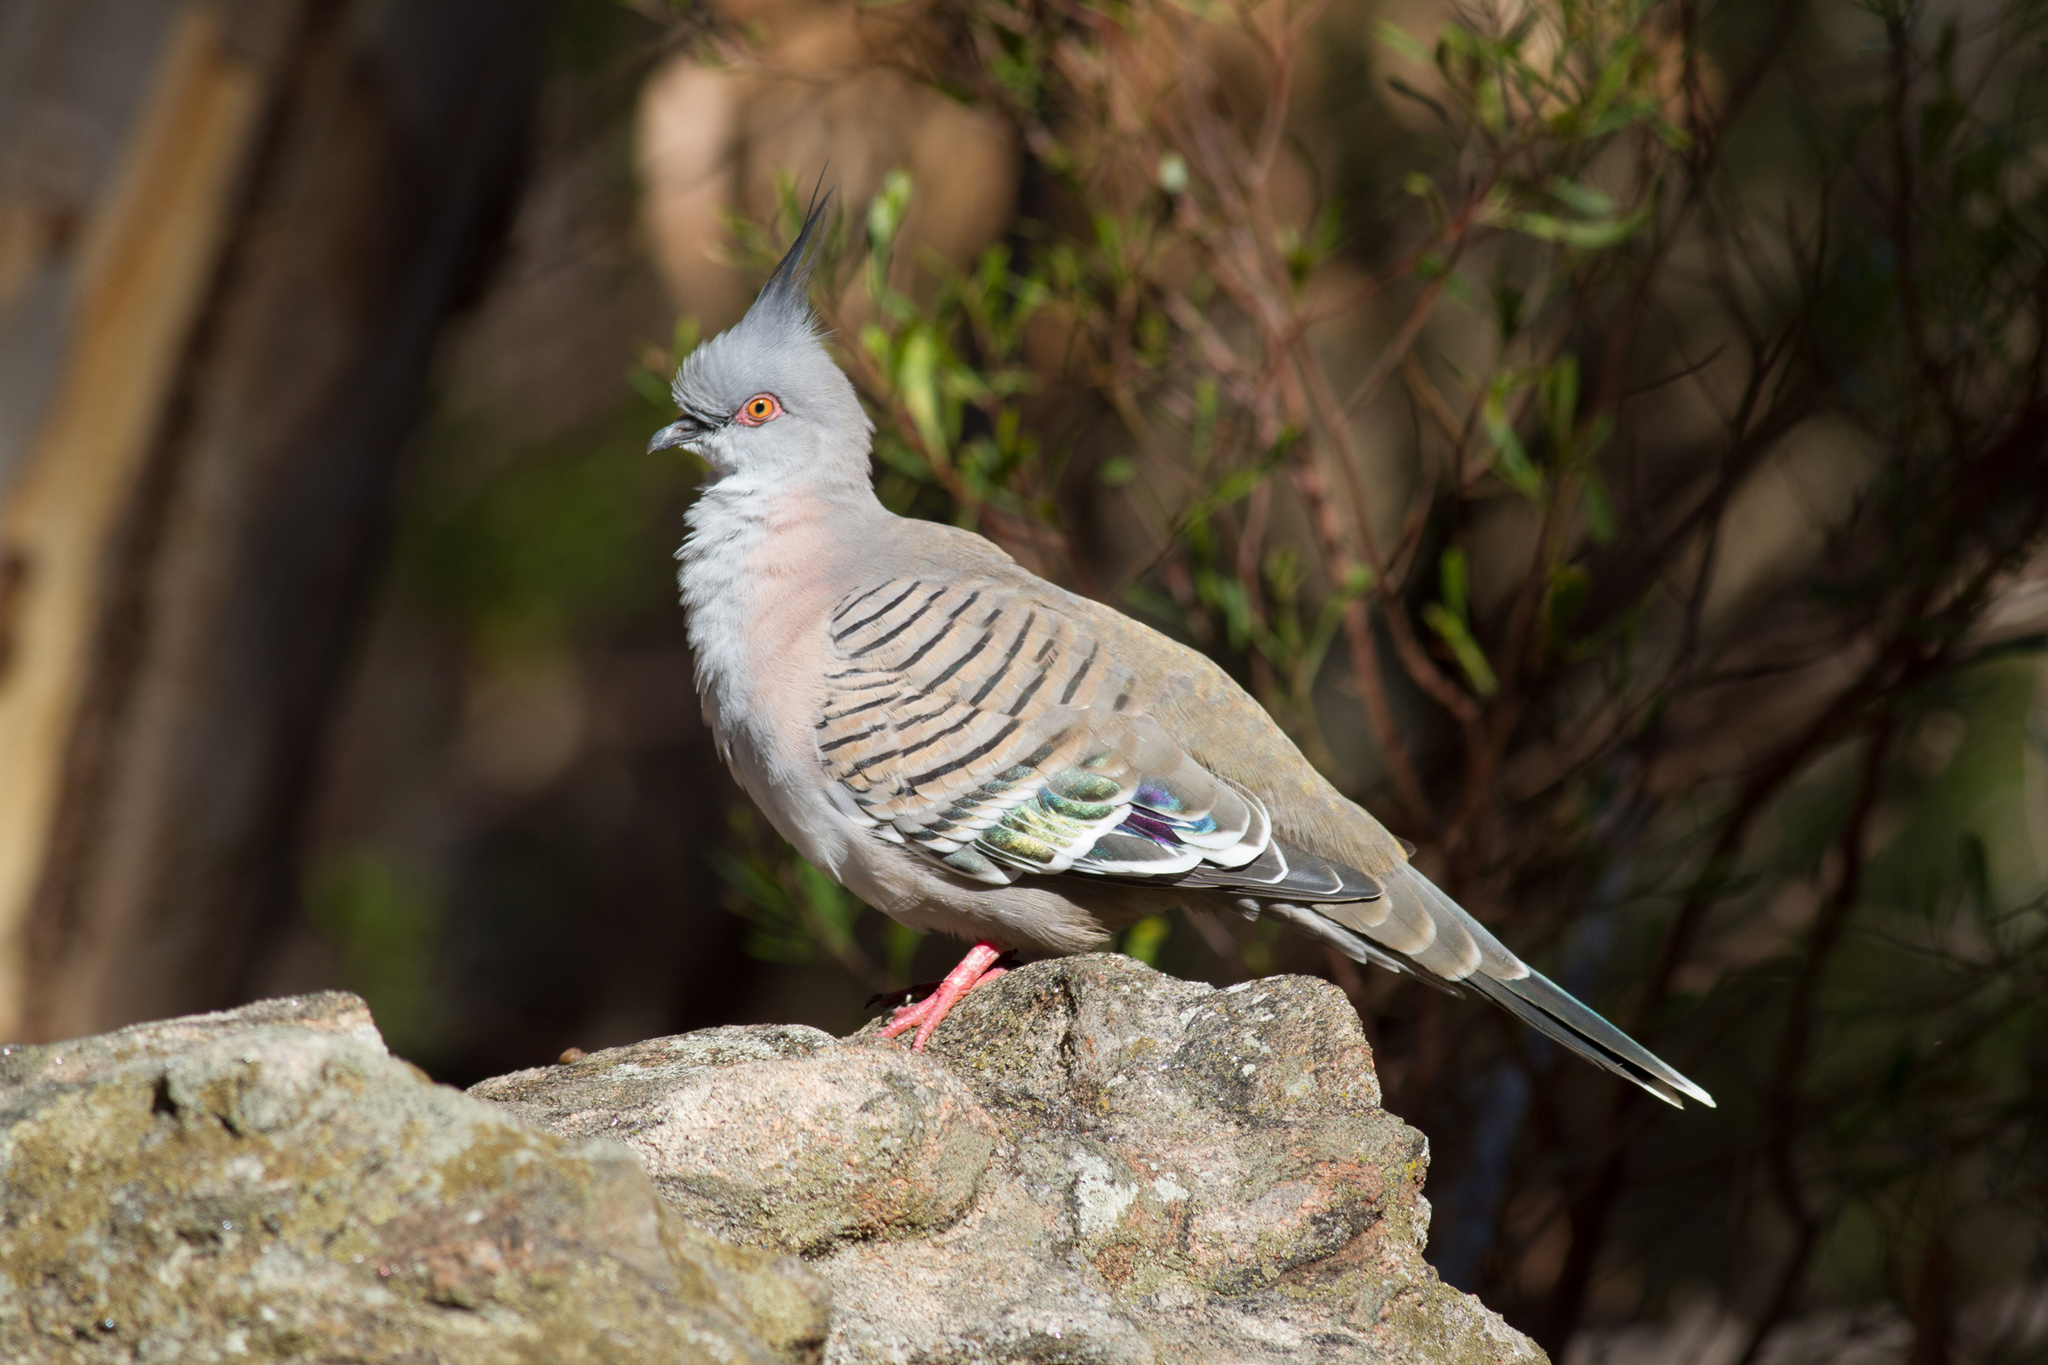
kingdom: Animalia
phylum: Chordata
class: Aves
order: Columbiformes
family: Columbidae
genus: Ocyphaps
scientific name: Ocyphaps lophotes
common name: Crested pigeon
